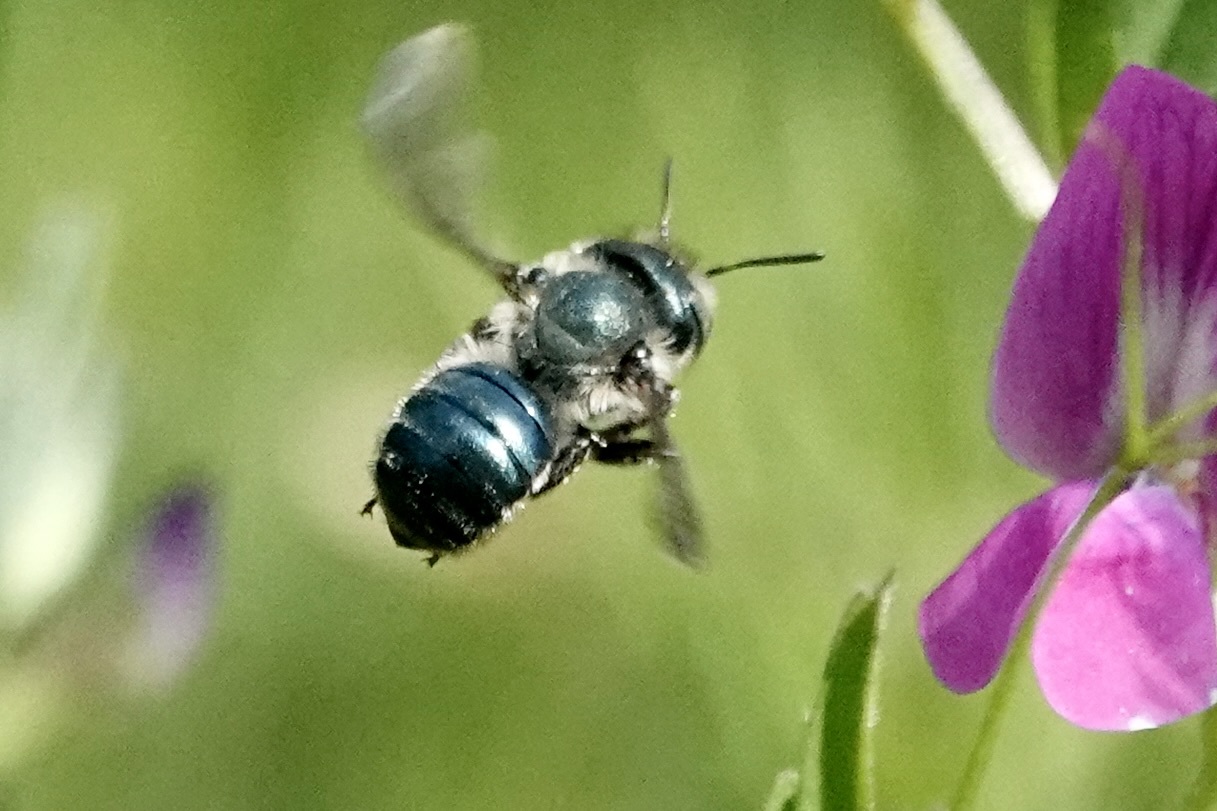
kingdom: Animalia
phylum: Arthropoda
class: Insecta
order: Hymenoptera
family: Megachilidae
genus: Osmia
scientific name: Osmia lignaria
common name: Blue orchard bee
